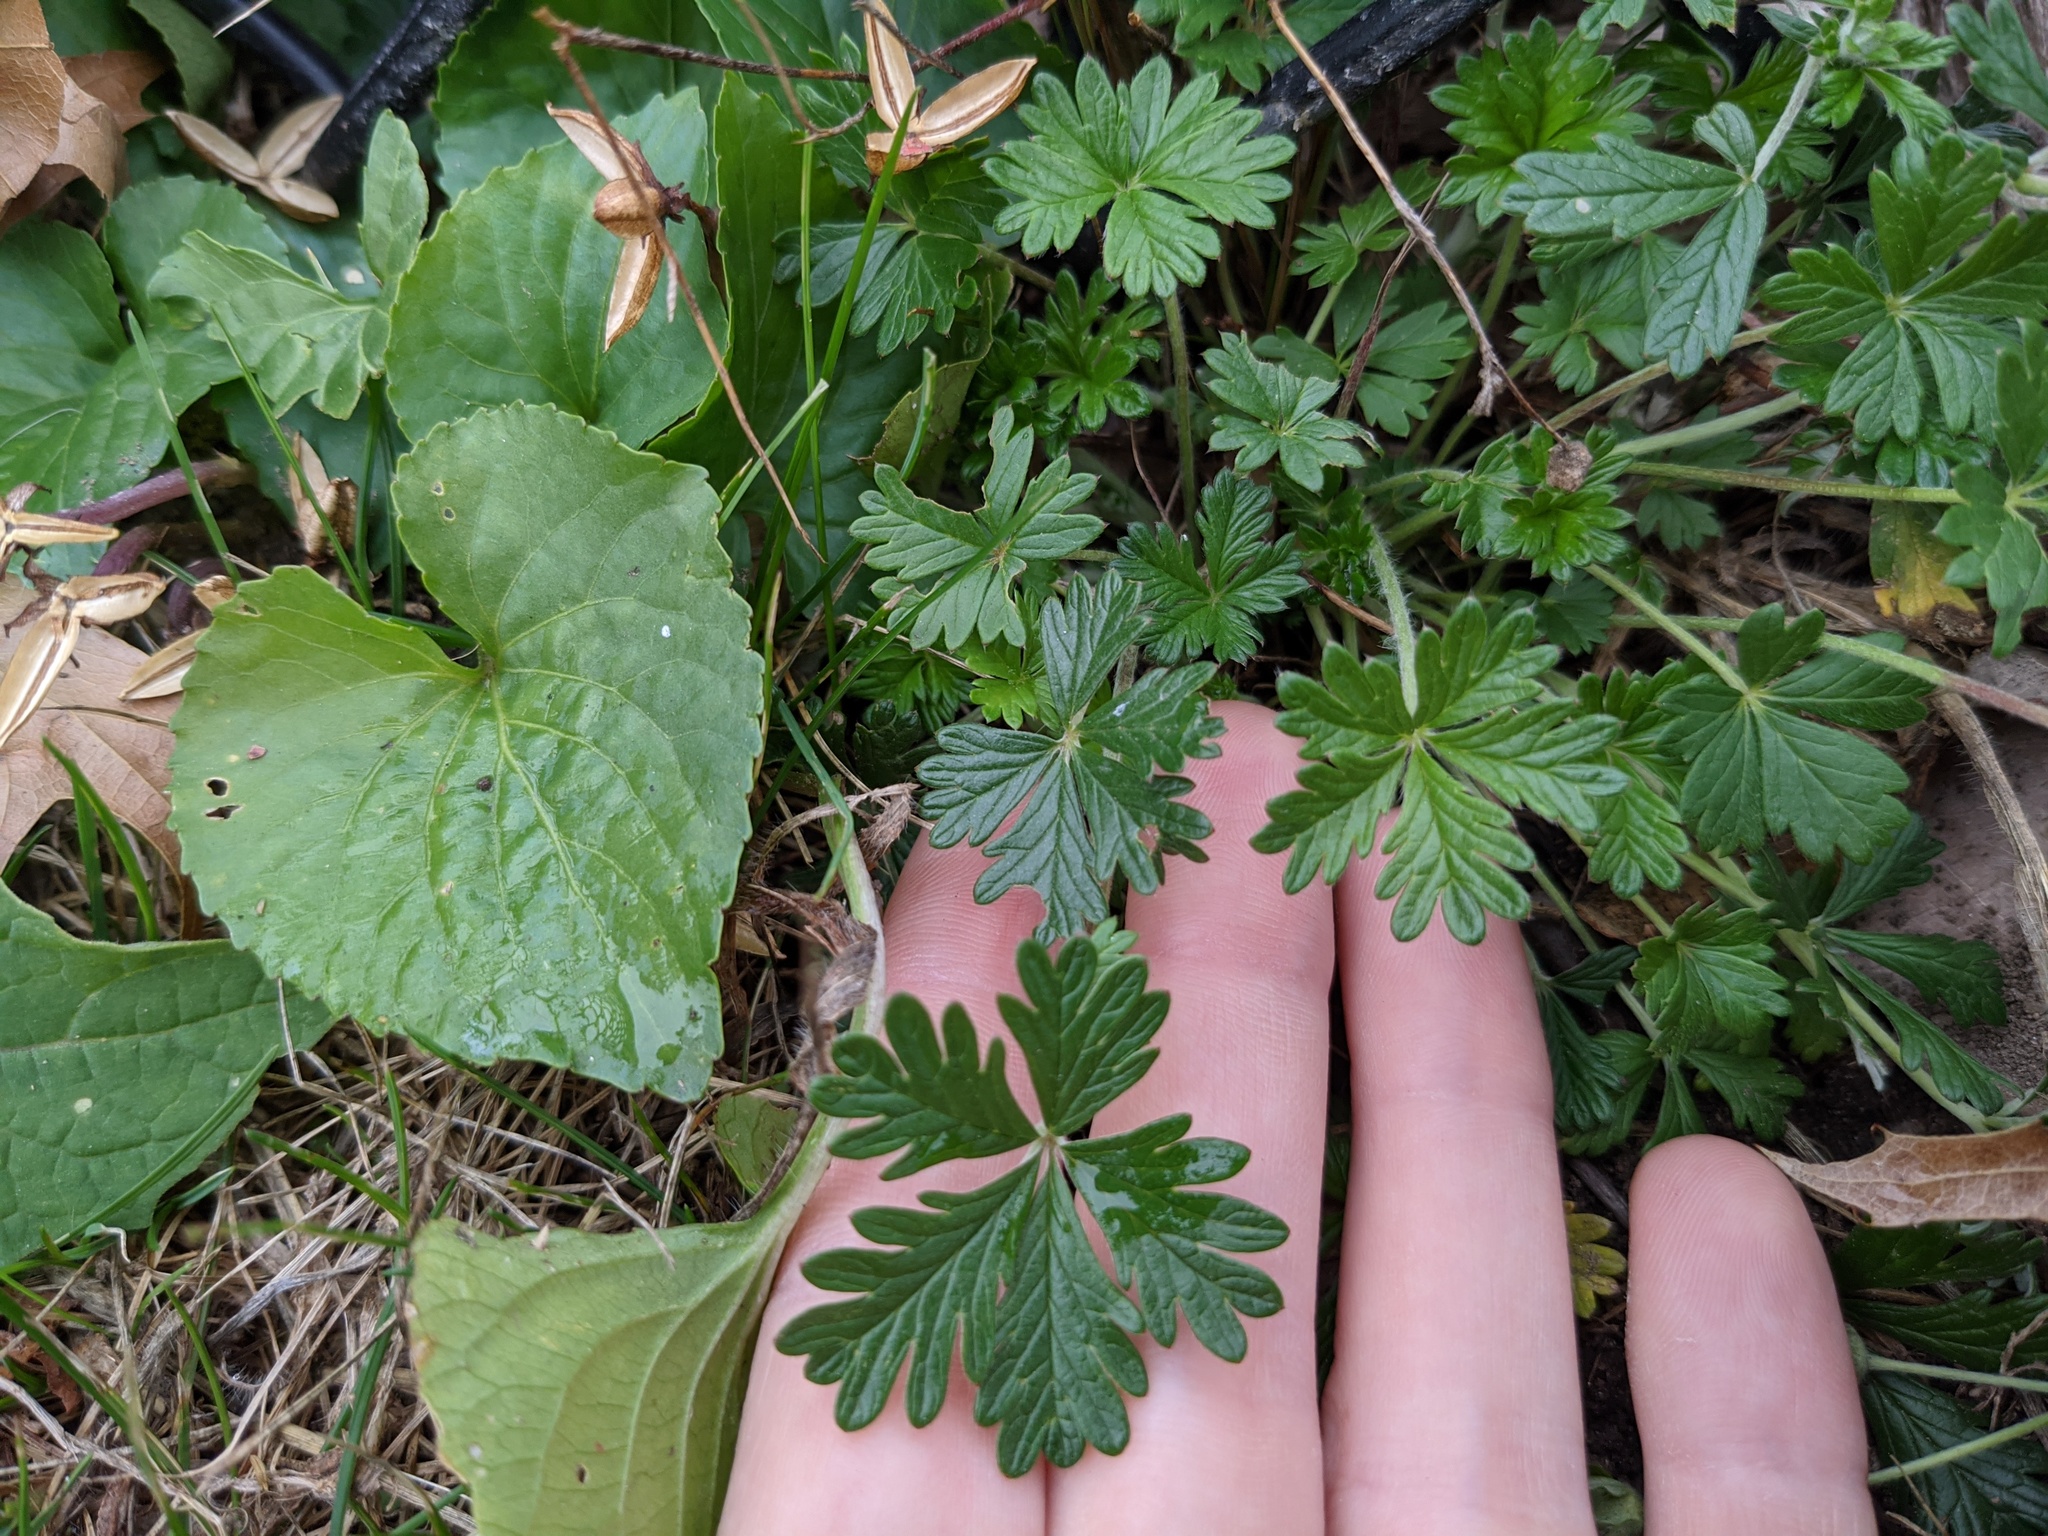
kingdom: Plantae
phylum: Tracheophyta
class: Magnoliopsida
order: Rosales
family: Rosaceae
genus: Potentilla
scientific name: Potentilla argentea
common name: Hoary cinquefoil
